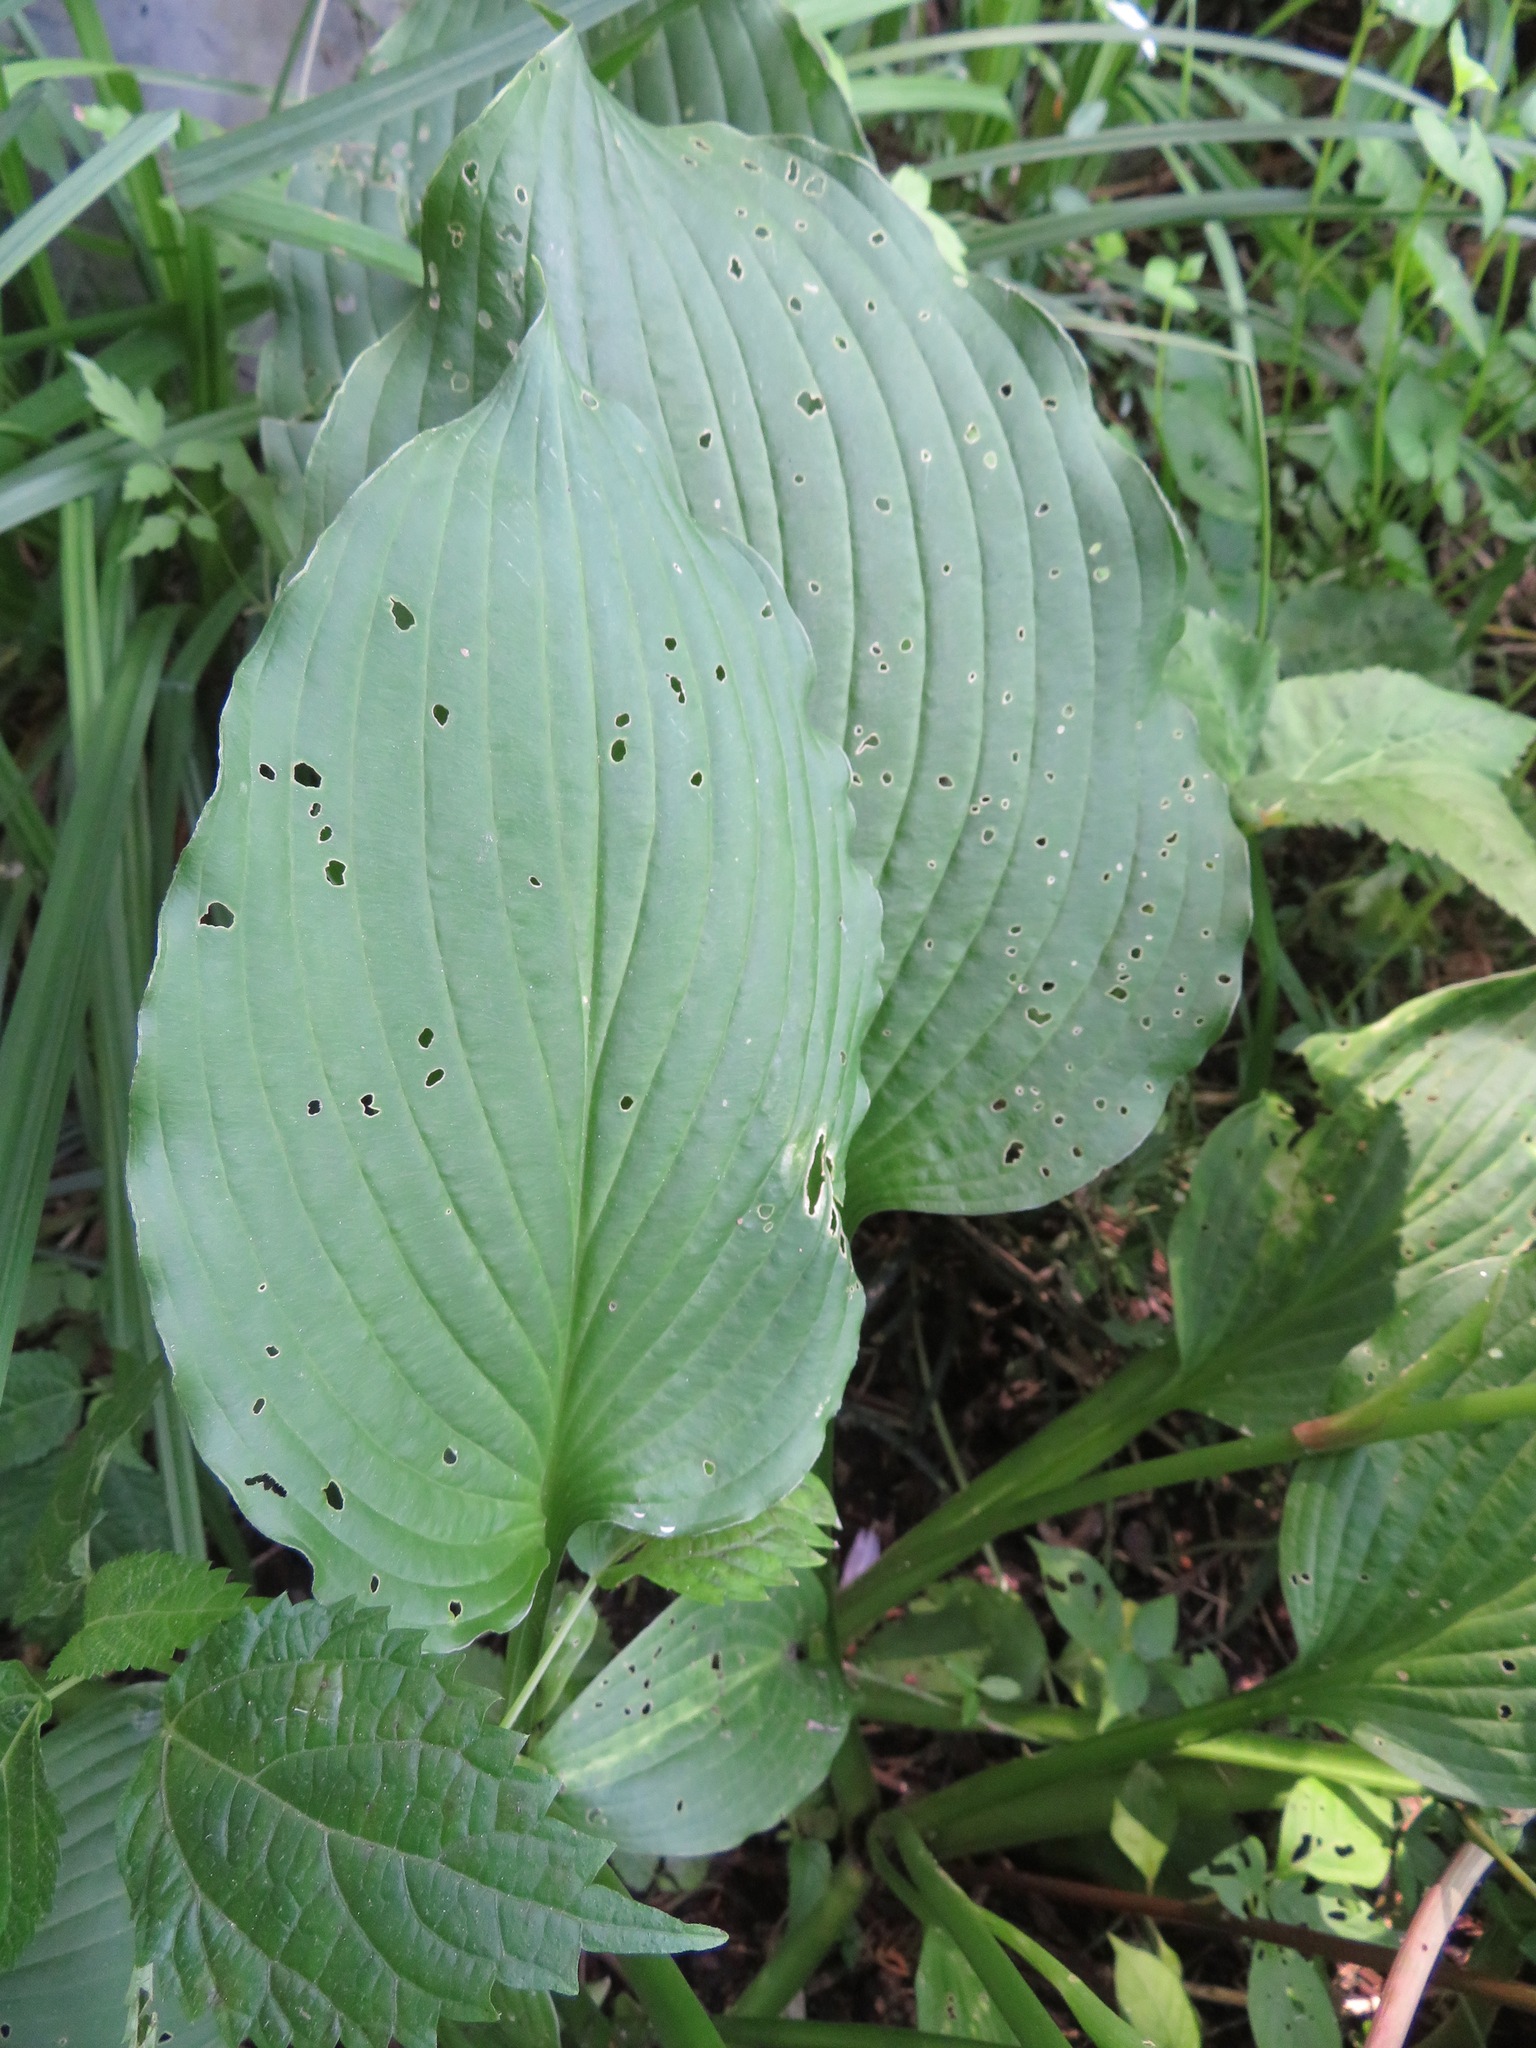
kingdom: Plantae
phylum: Tracheophyta
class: Liliopsida
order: Asparagales
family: Asparagaceae
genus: Hosta
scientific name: Hosta sieboldiana
